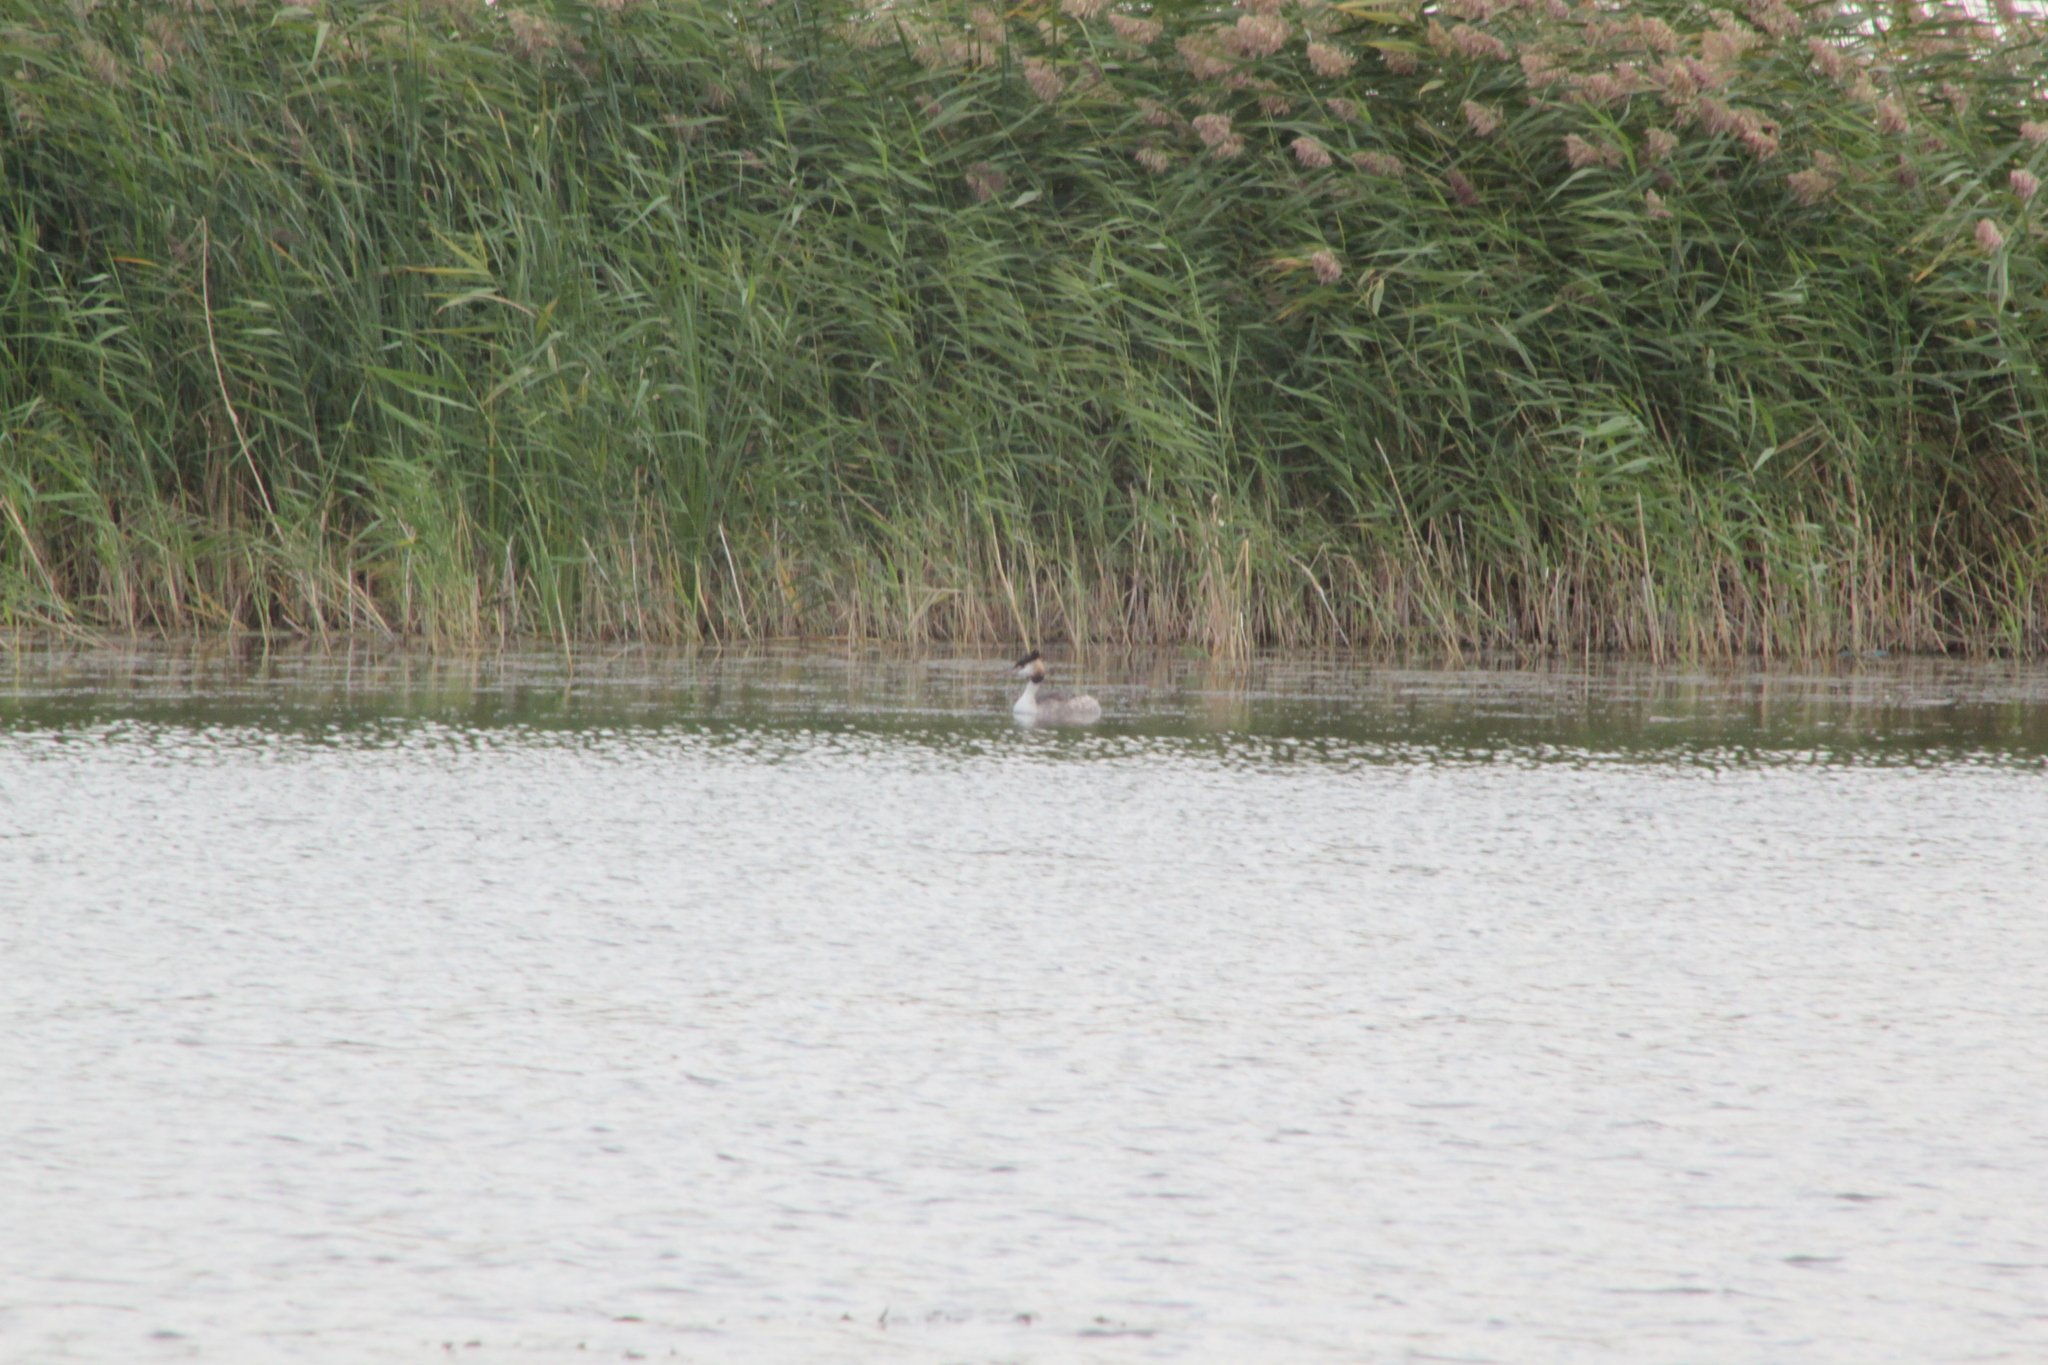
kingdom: Animalia
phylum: Chordata
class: Aves
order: Podicipediformes
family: Podicipedidae
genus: Podiceps
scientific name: Podiceps cristatus
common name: Great crested grebe
